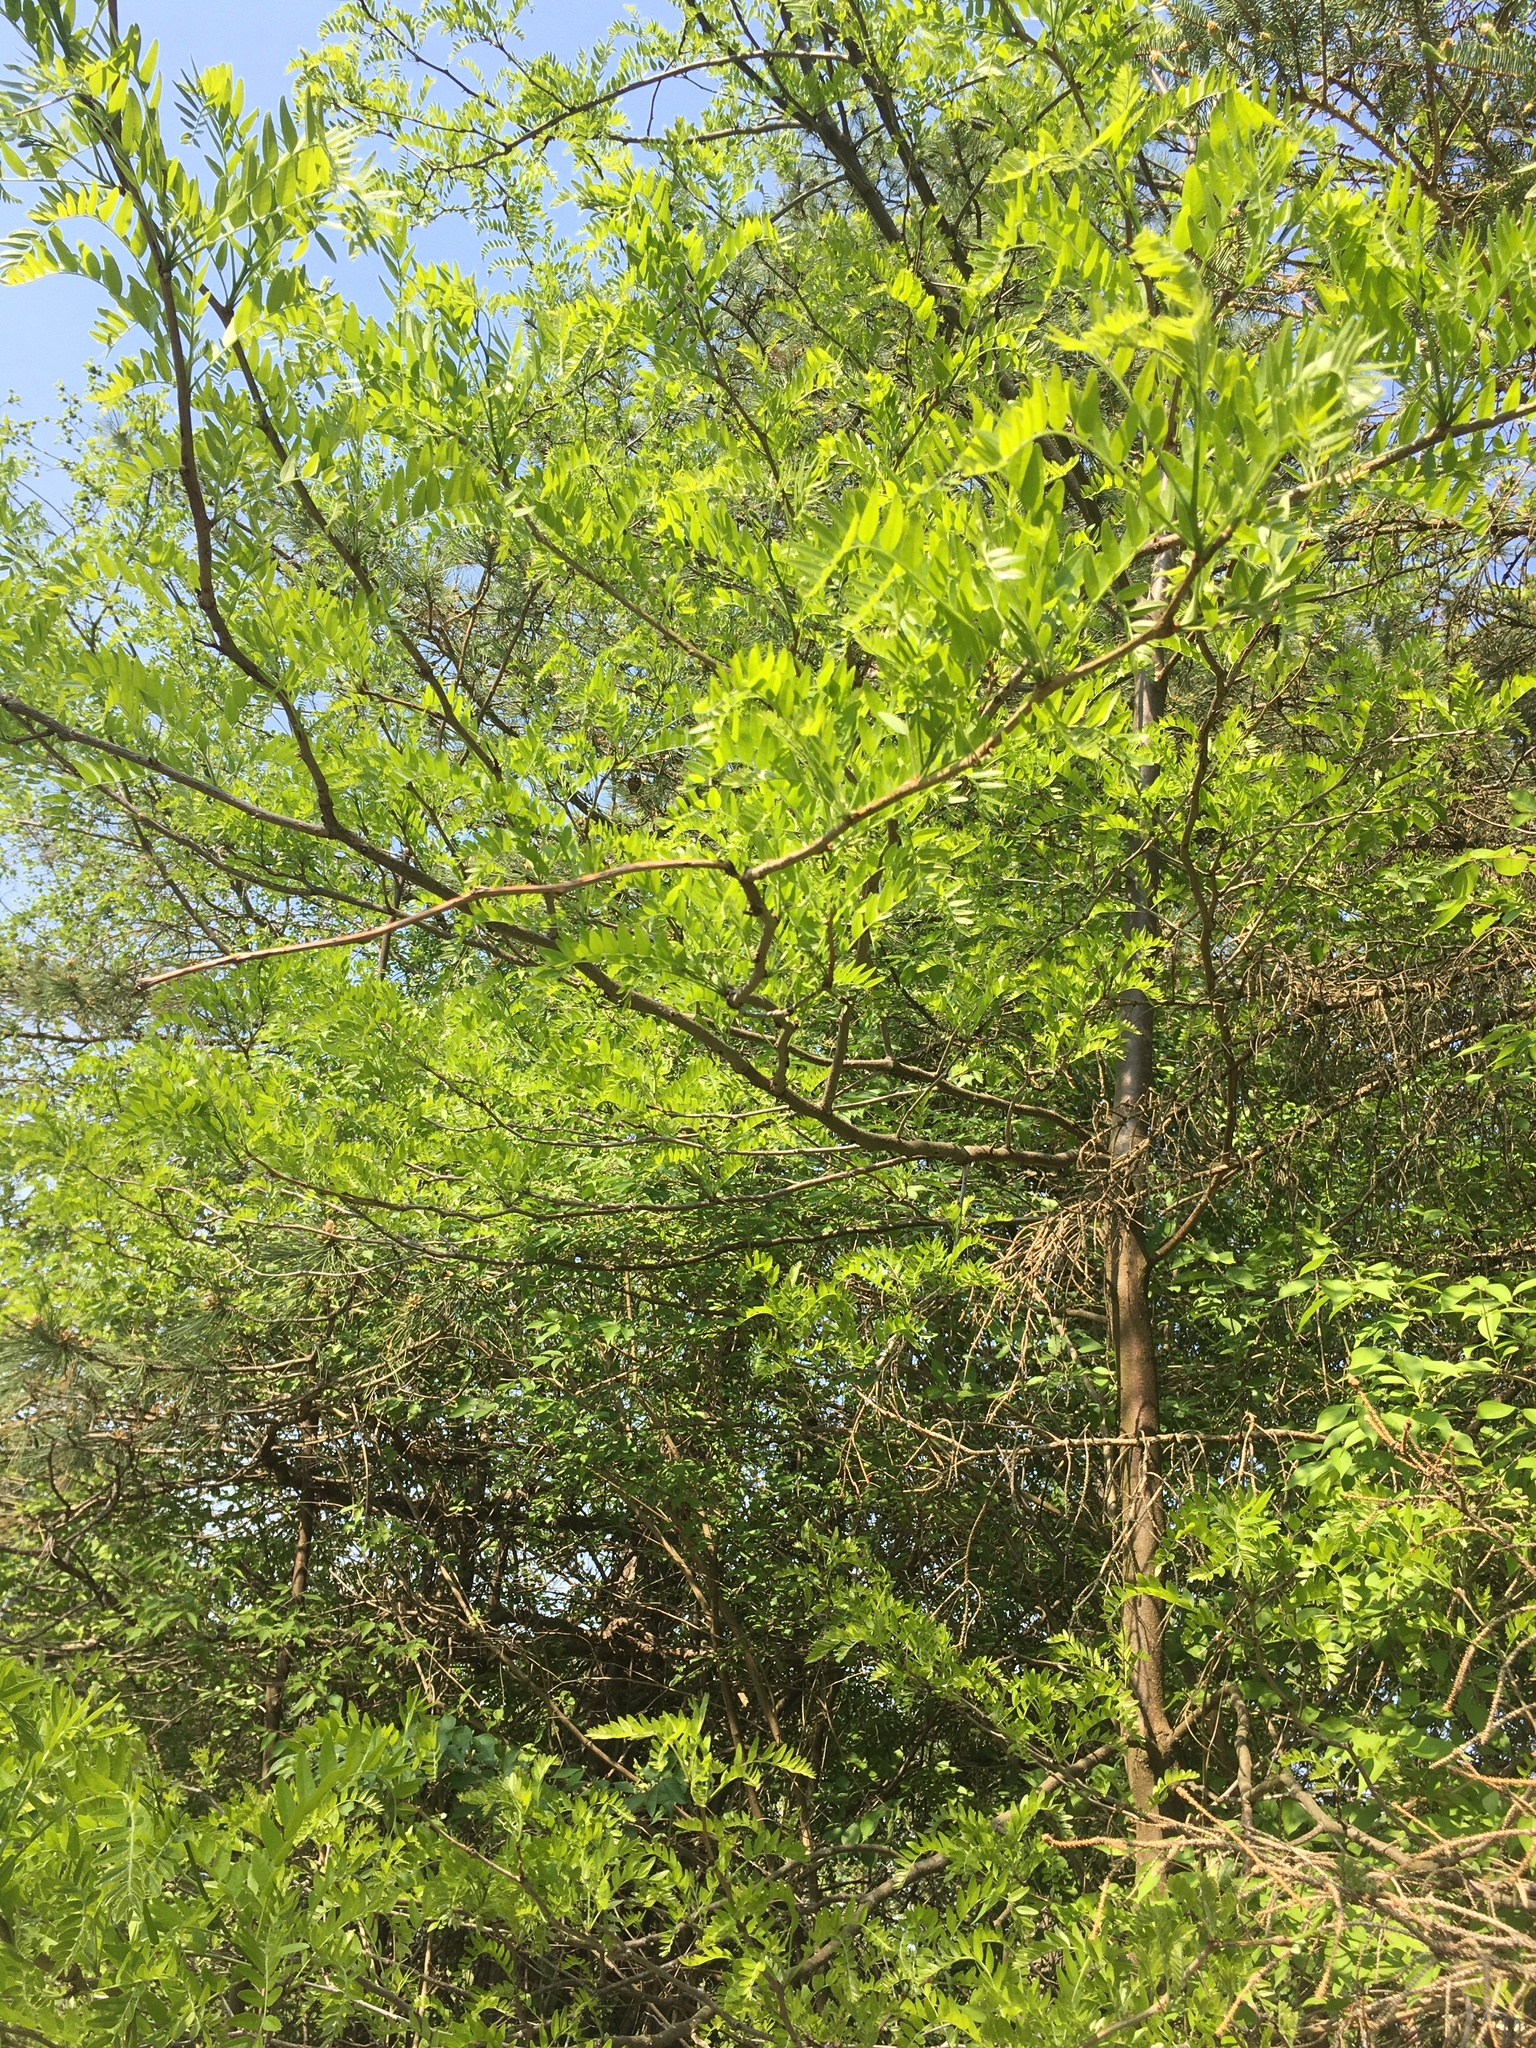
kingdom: Plantae
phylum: Tracheophyta
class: Magnoliopsida
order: Fabales
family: Fabaceae
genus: Gleditsia
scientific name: Gleditsia triacanthos
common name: Common honeylocust
